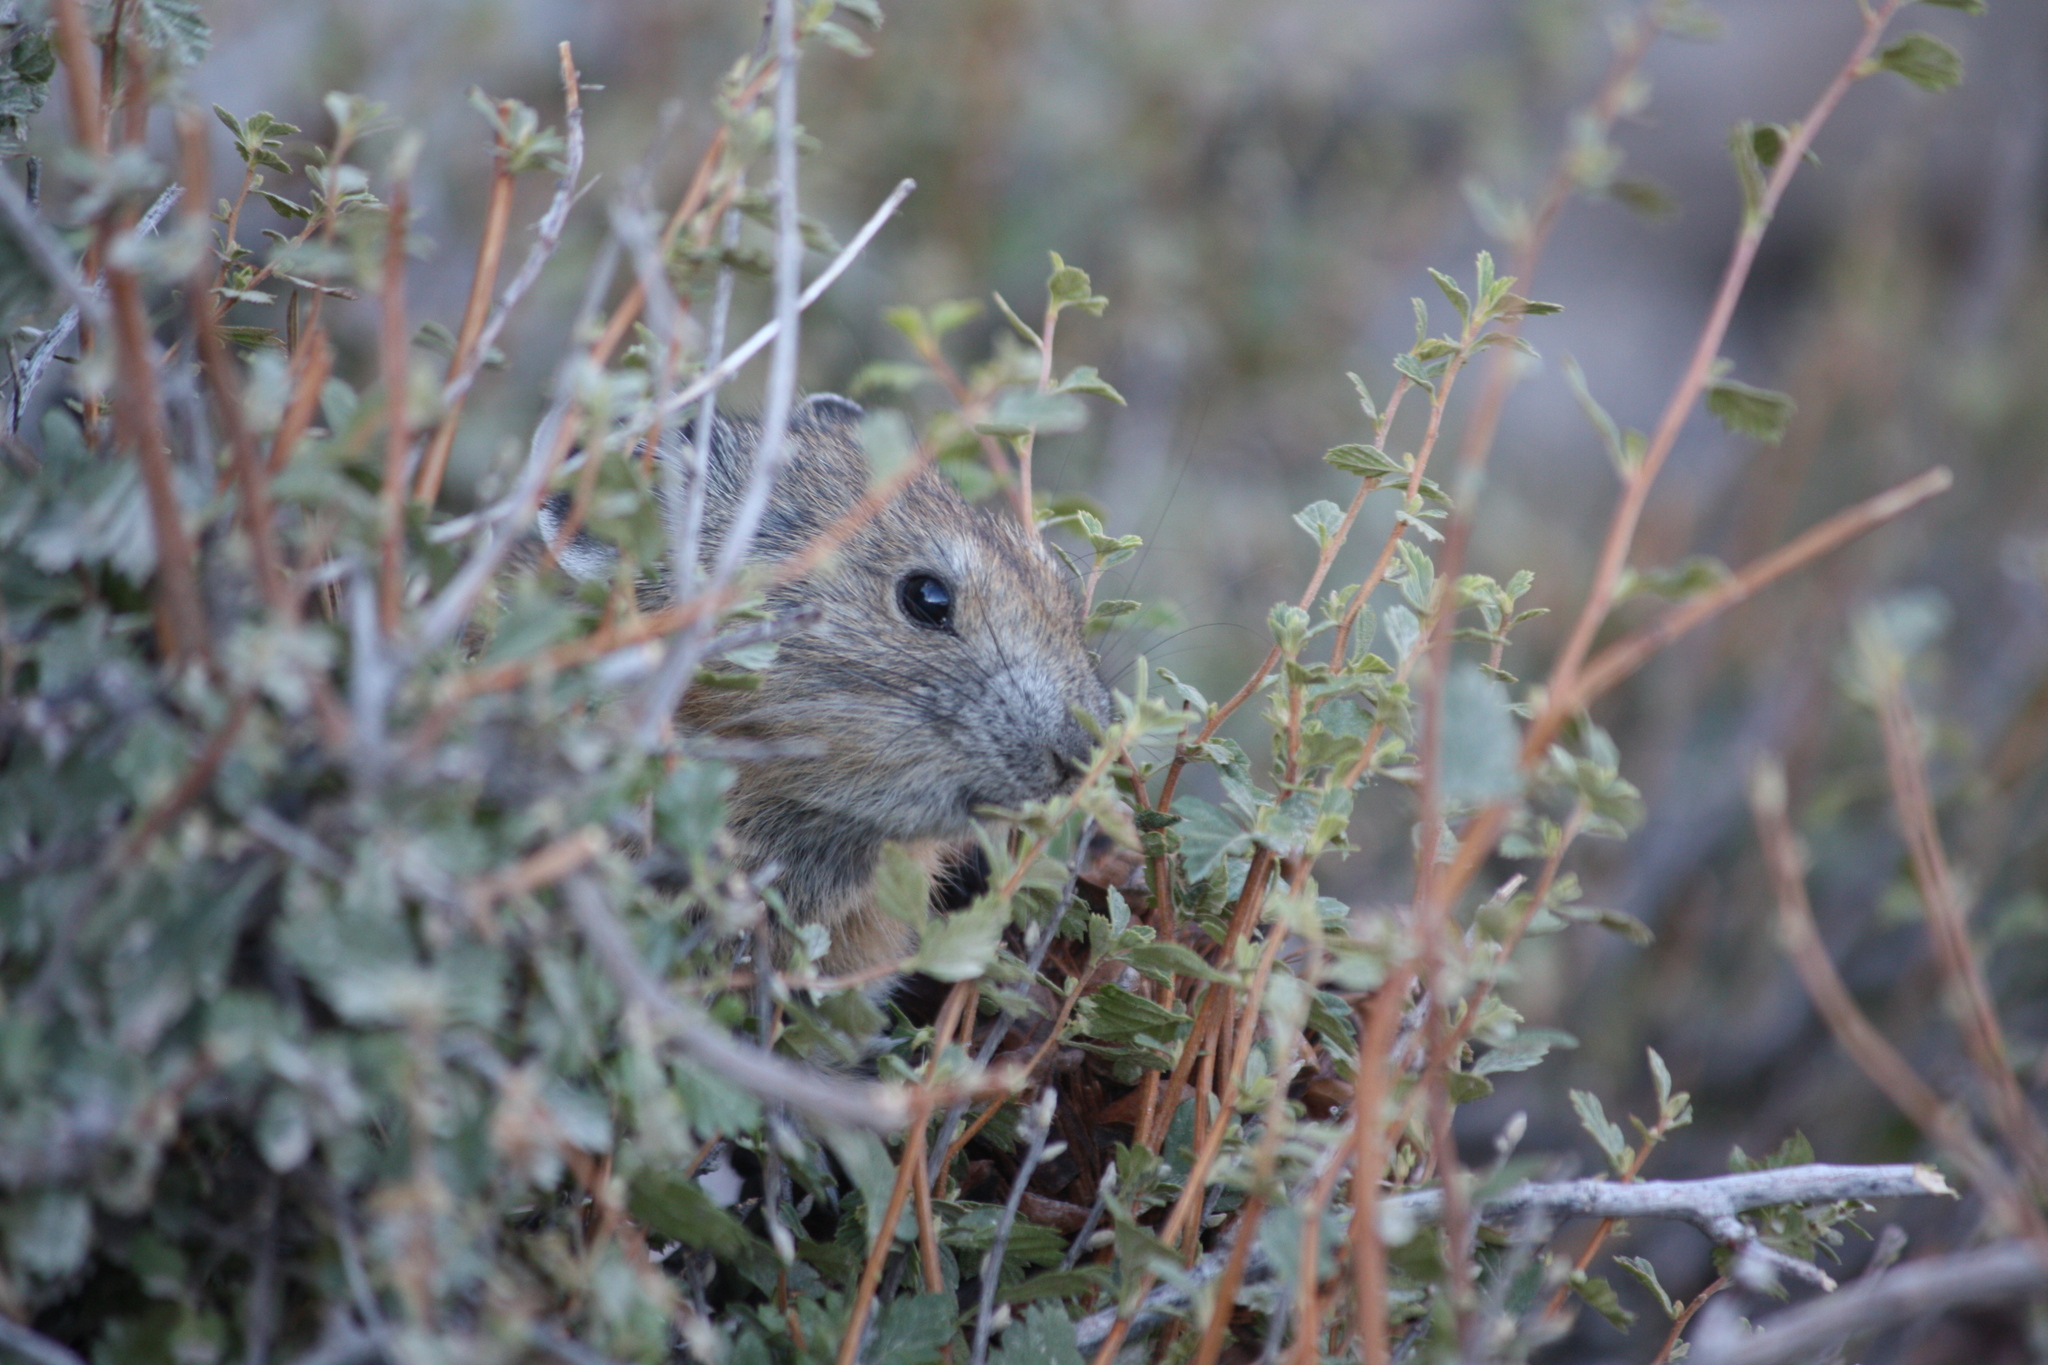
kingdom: Animalia
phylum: Chordata
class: Mammalia
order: Lagomorpha
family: Ochotonidae
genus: Ochotona
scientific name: Ochotona princeps
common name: American pika
